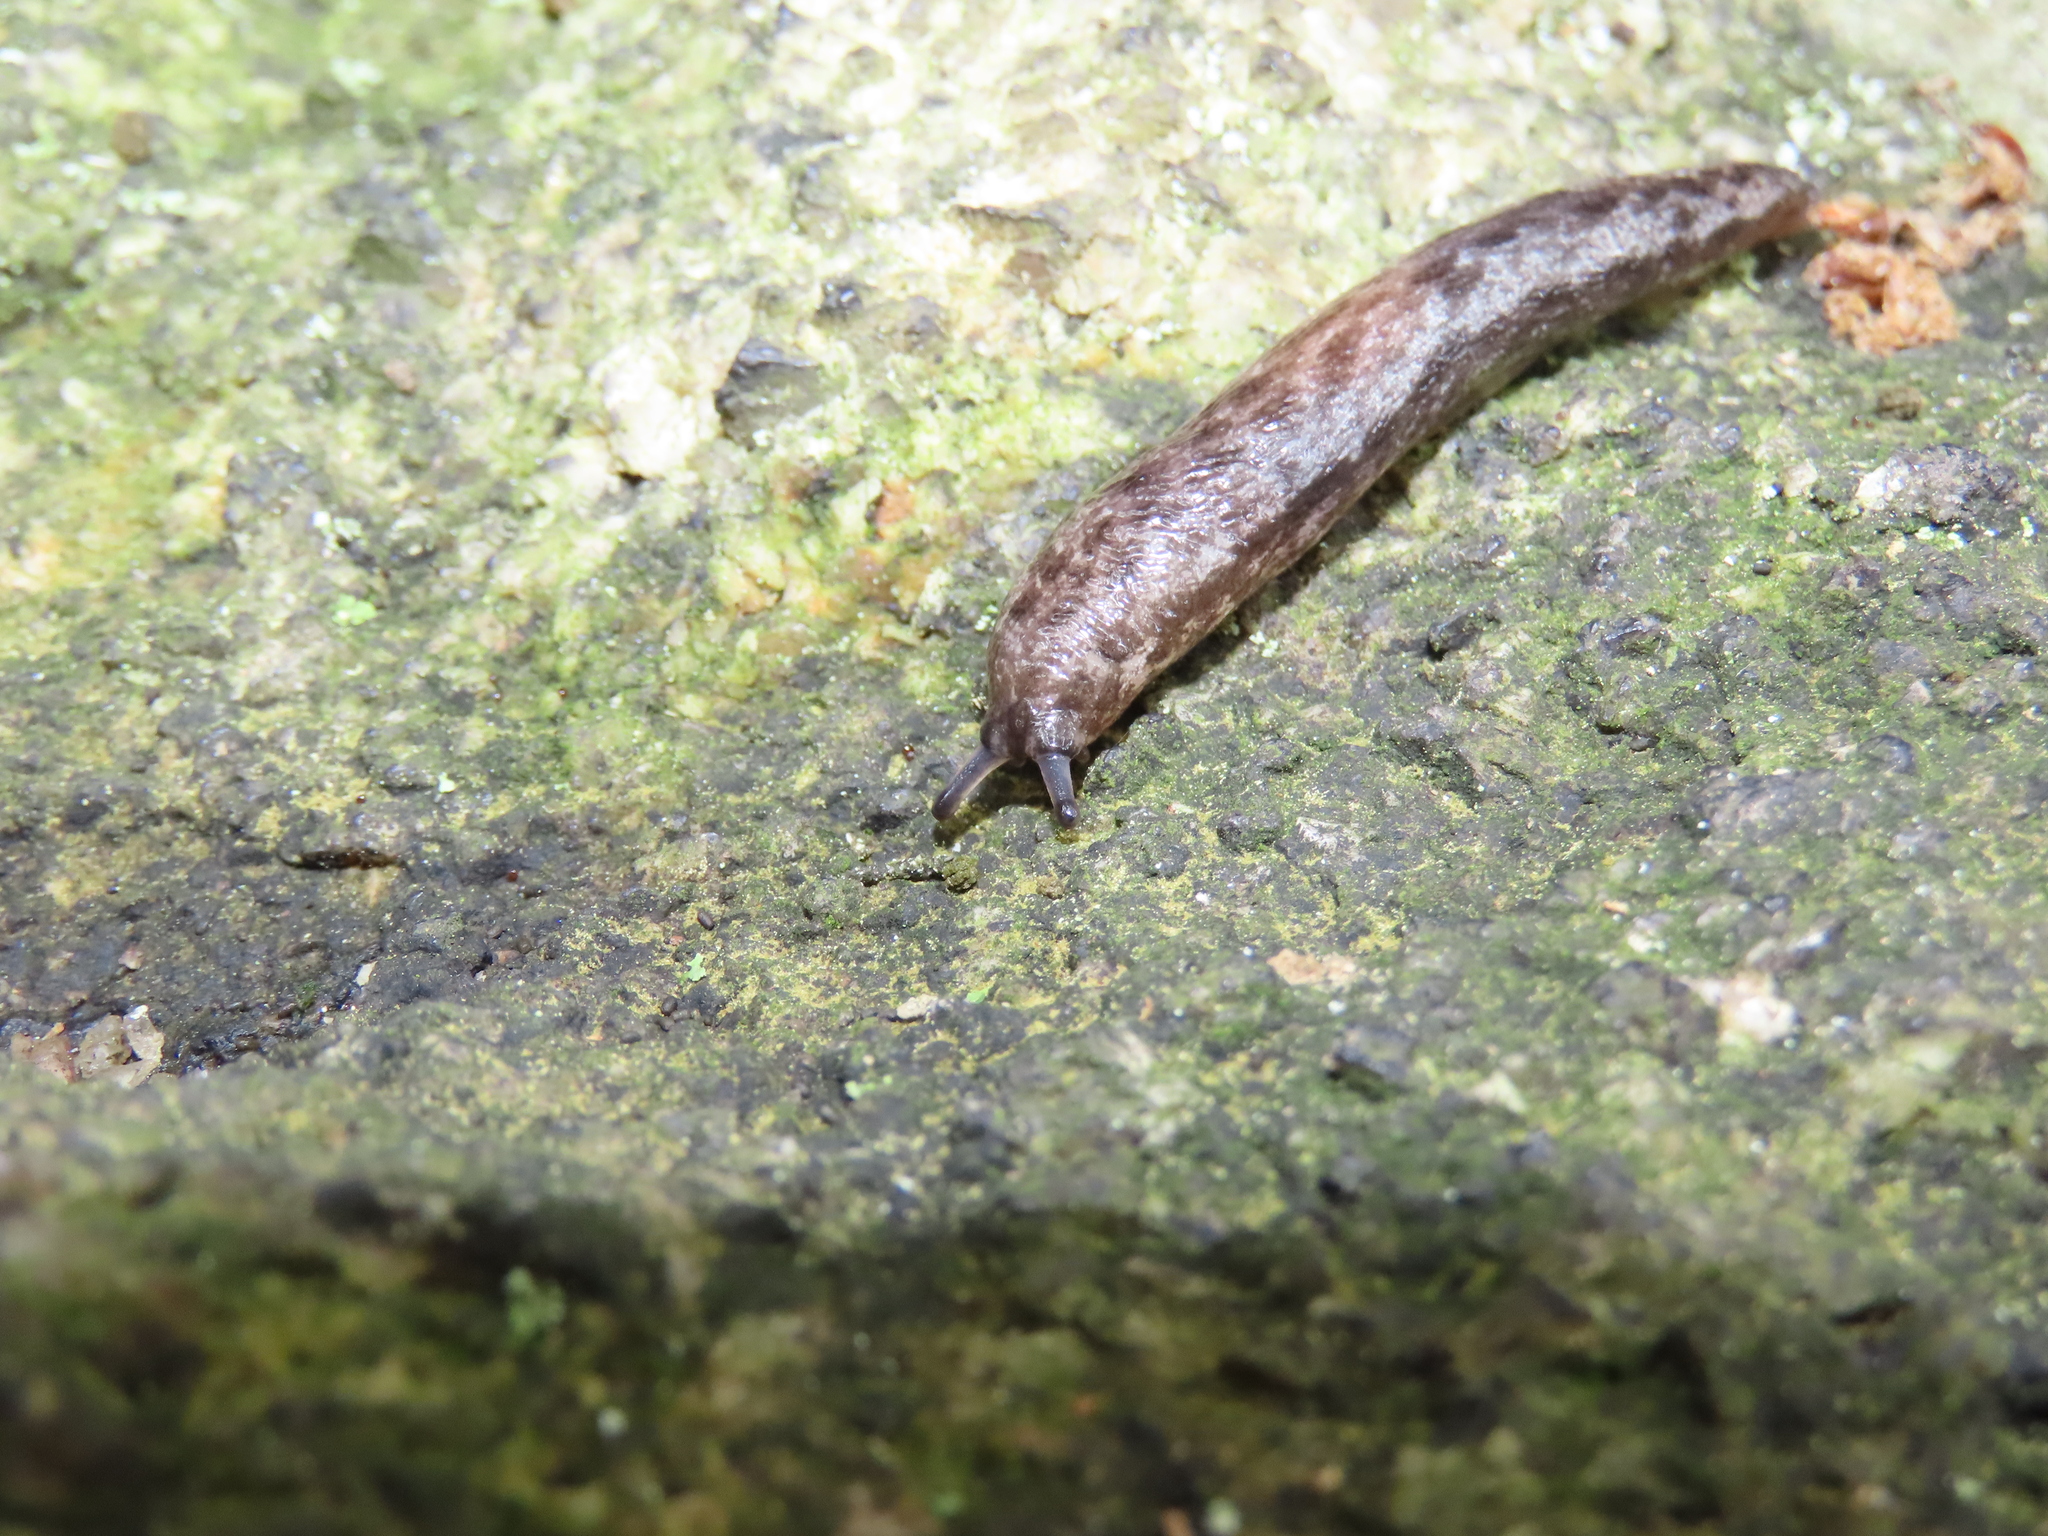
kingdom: Animalia
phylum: Mollusca
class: Gastropoda
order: Stylommatophora
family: Philomycidae
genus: Megapallifera
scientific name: Megapallifera mutabilis
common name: Changeable mantleslug
